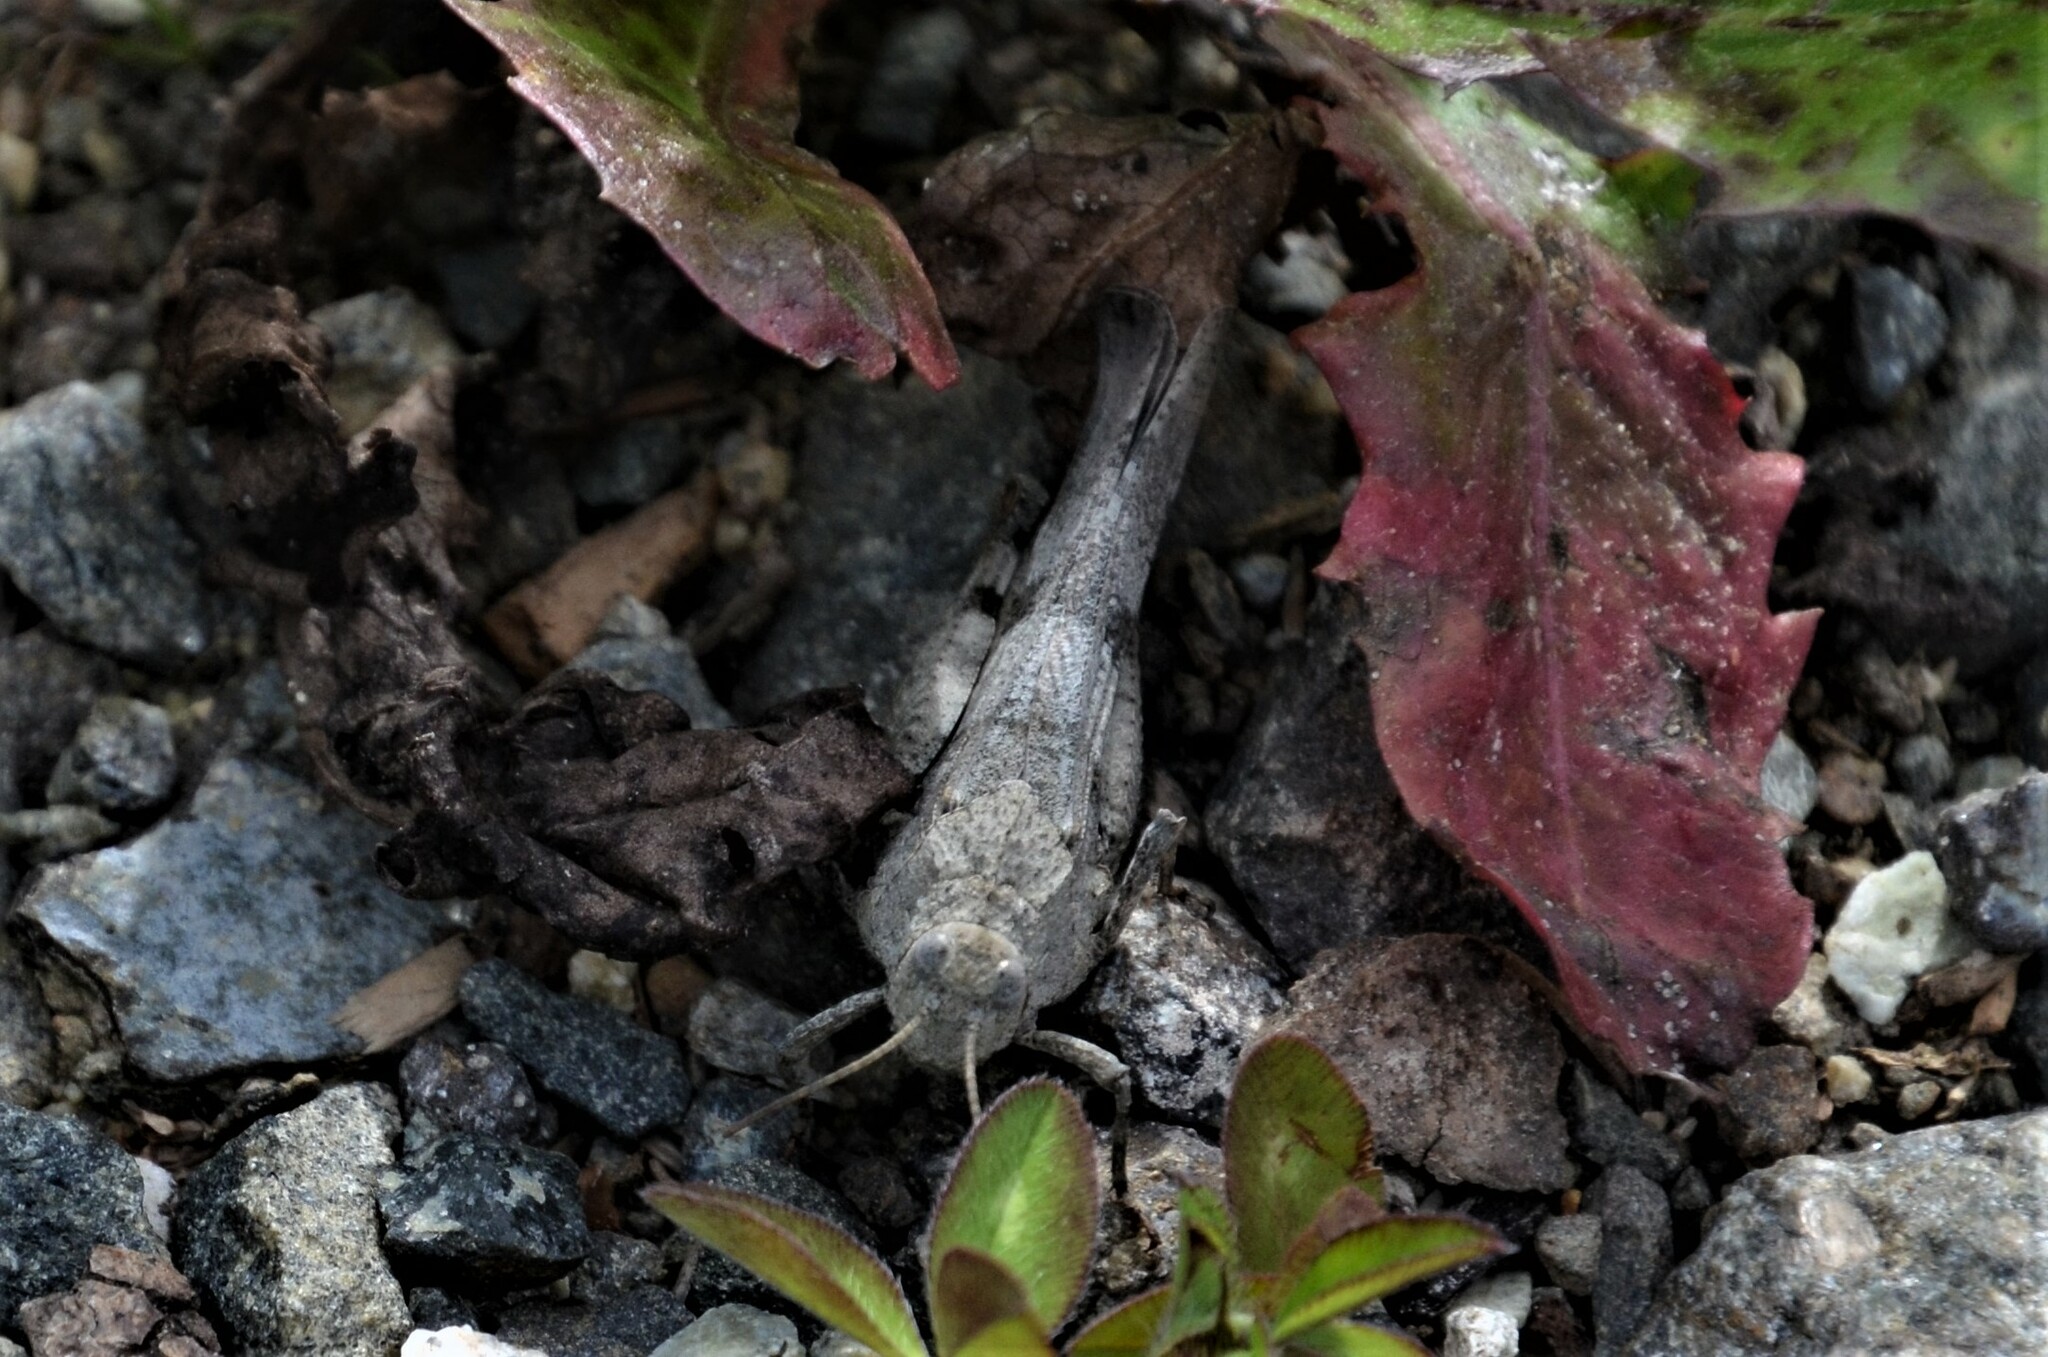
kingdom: Animalia
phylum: Arthropoda
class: Insecta
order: Orthoptera
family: Acrididae
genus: Oedipoda
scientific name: Oedipoda caerulescens
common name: Blue-winged grasshopper
